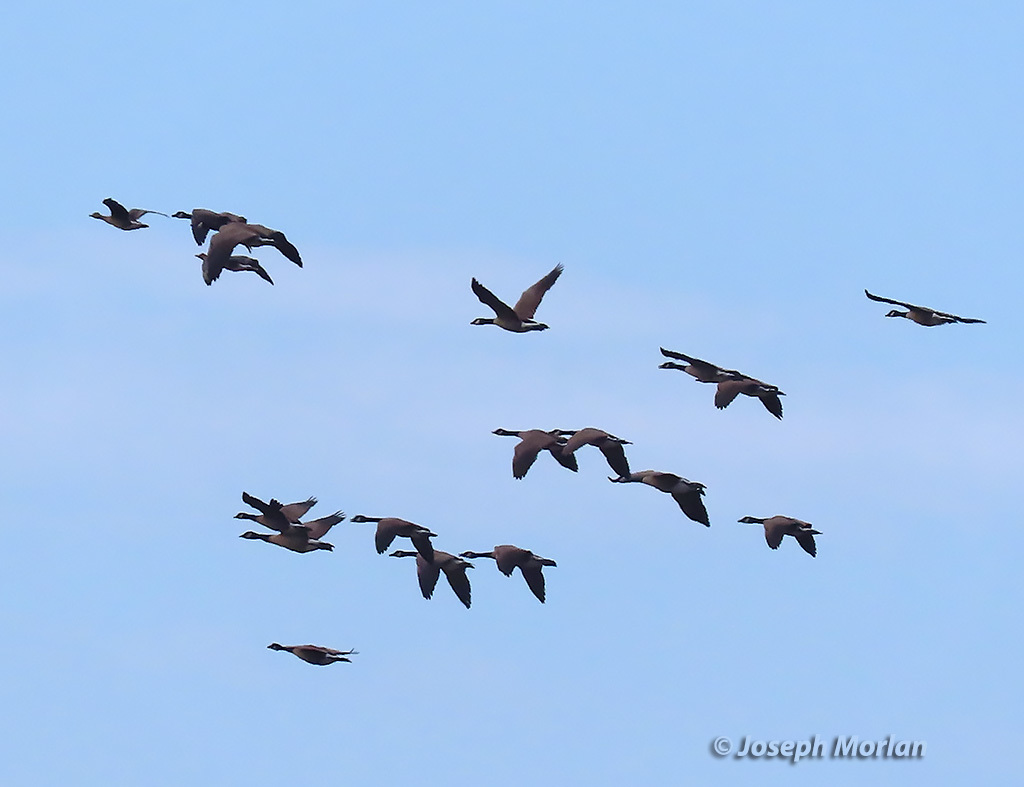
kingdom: Animalia
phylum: Chordata
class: Aves
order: Anseriformes
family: Anatidae
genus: Branta
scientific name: Branta canadensis
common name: Canada goose
